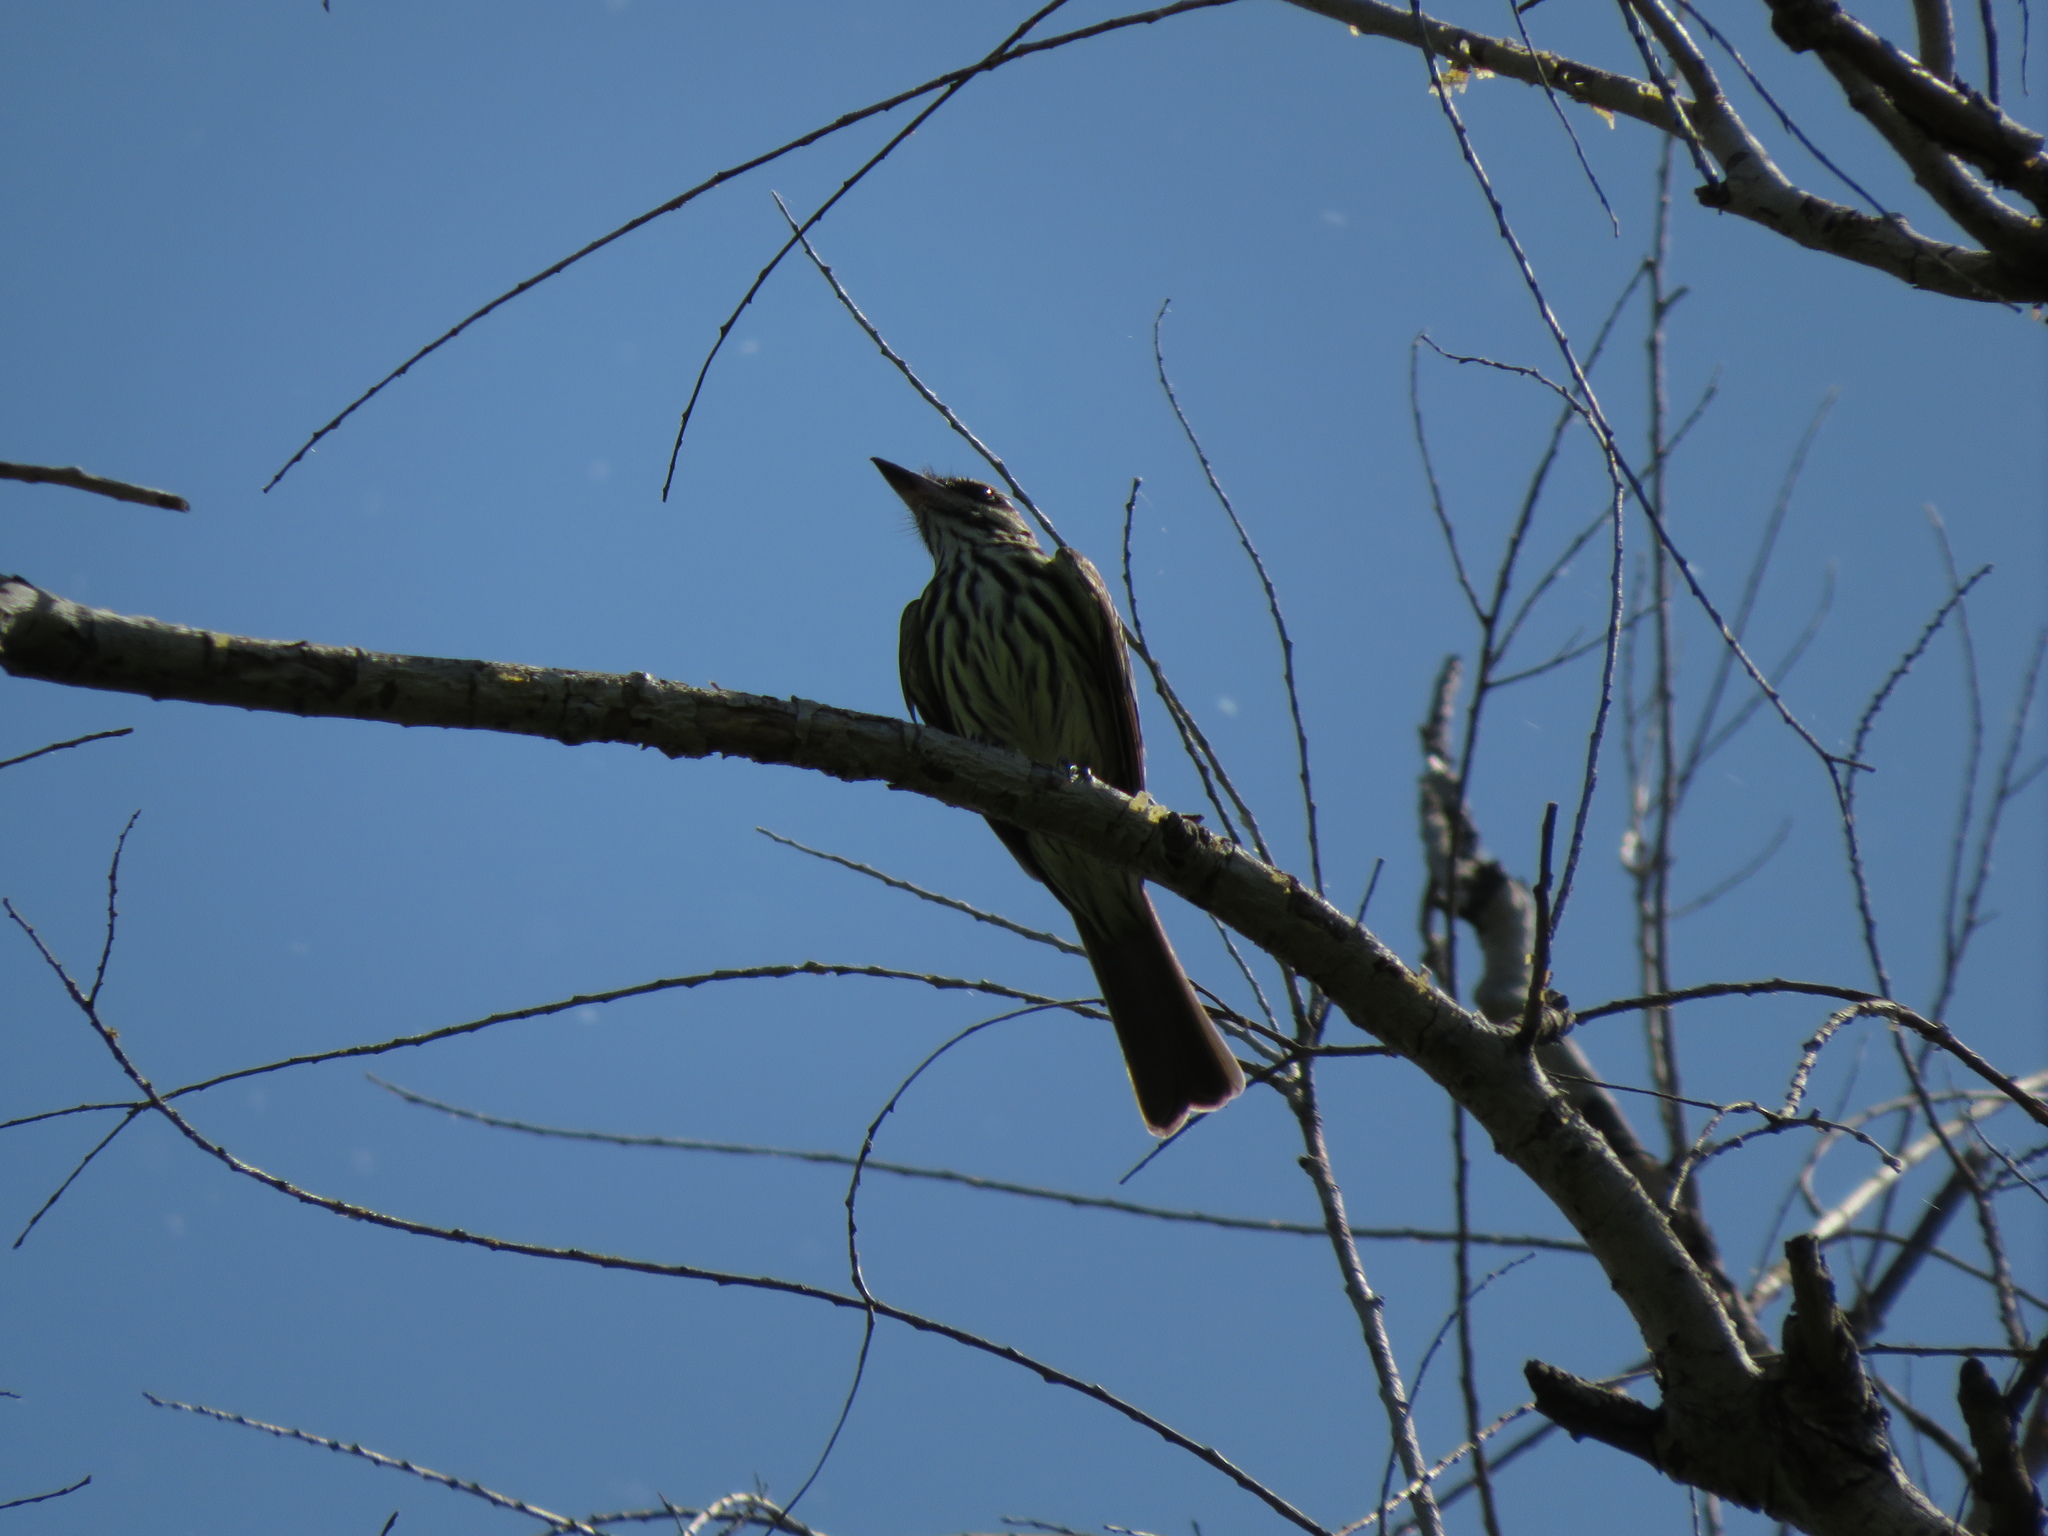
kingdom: Animalia
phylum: Chordata
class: Aves
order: Passeriformes
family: Tyrannidae
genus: Myiodynastes
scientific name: Myiodynastes maculatus
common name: Streaked flycatcher
